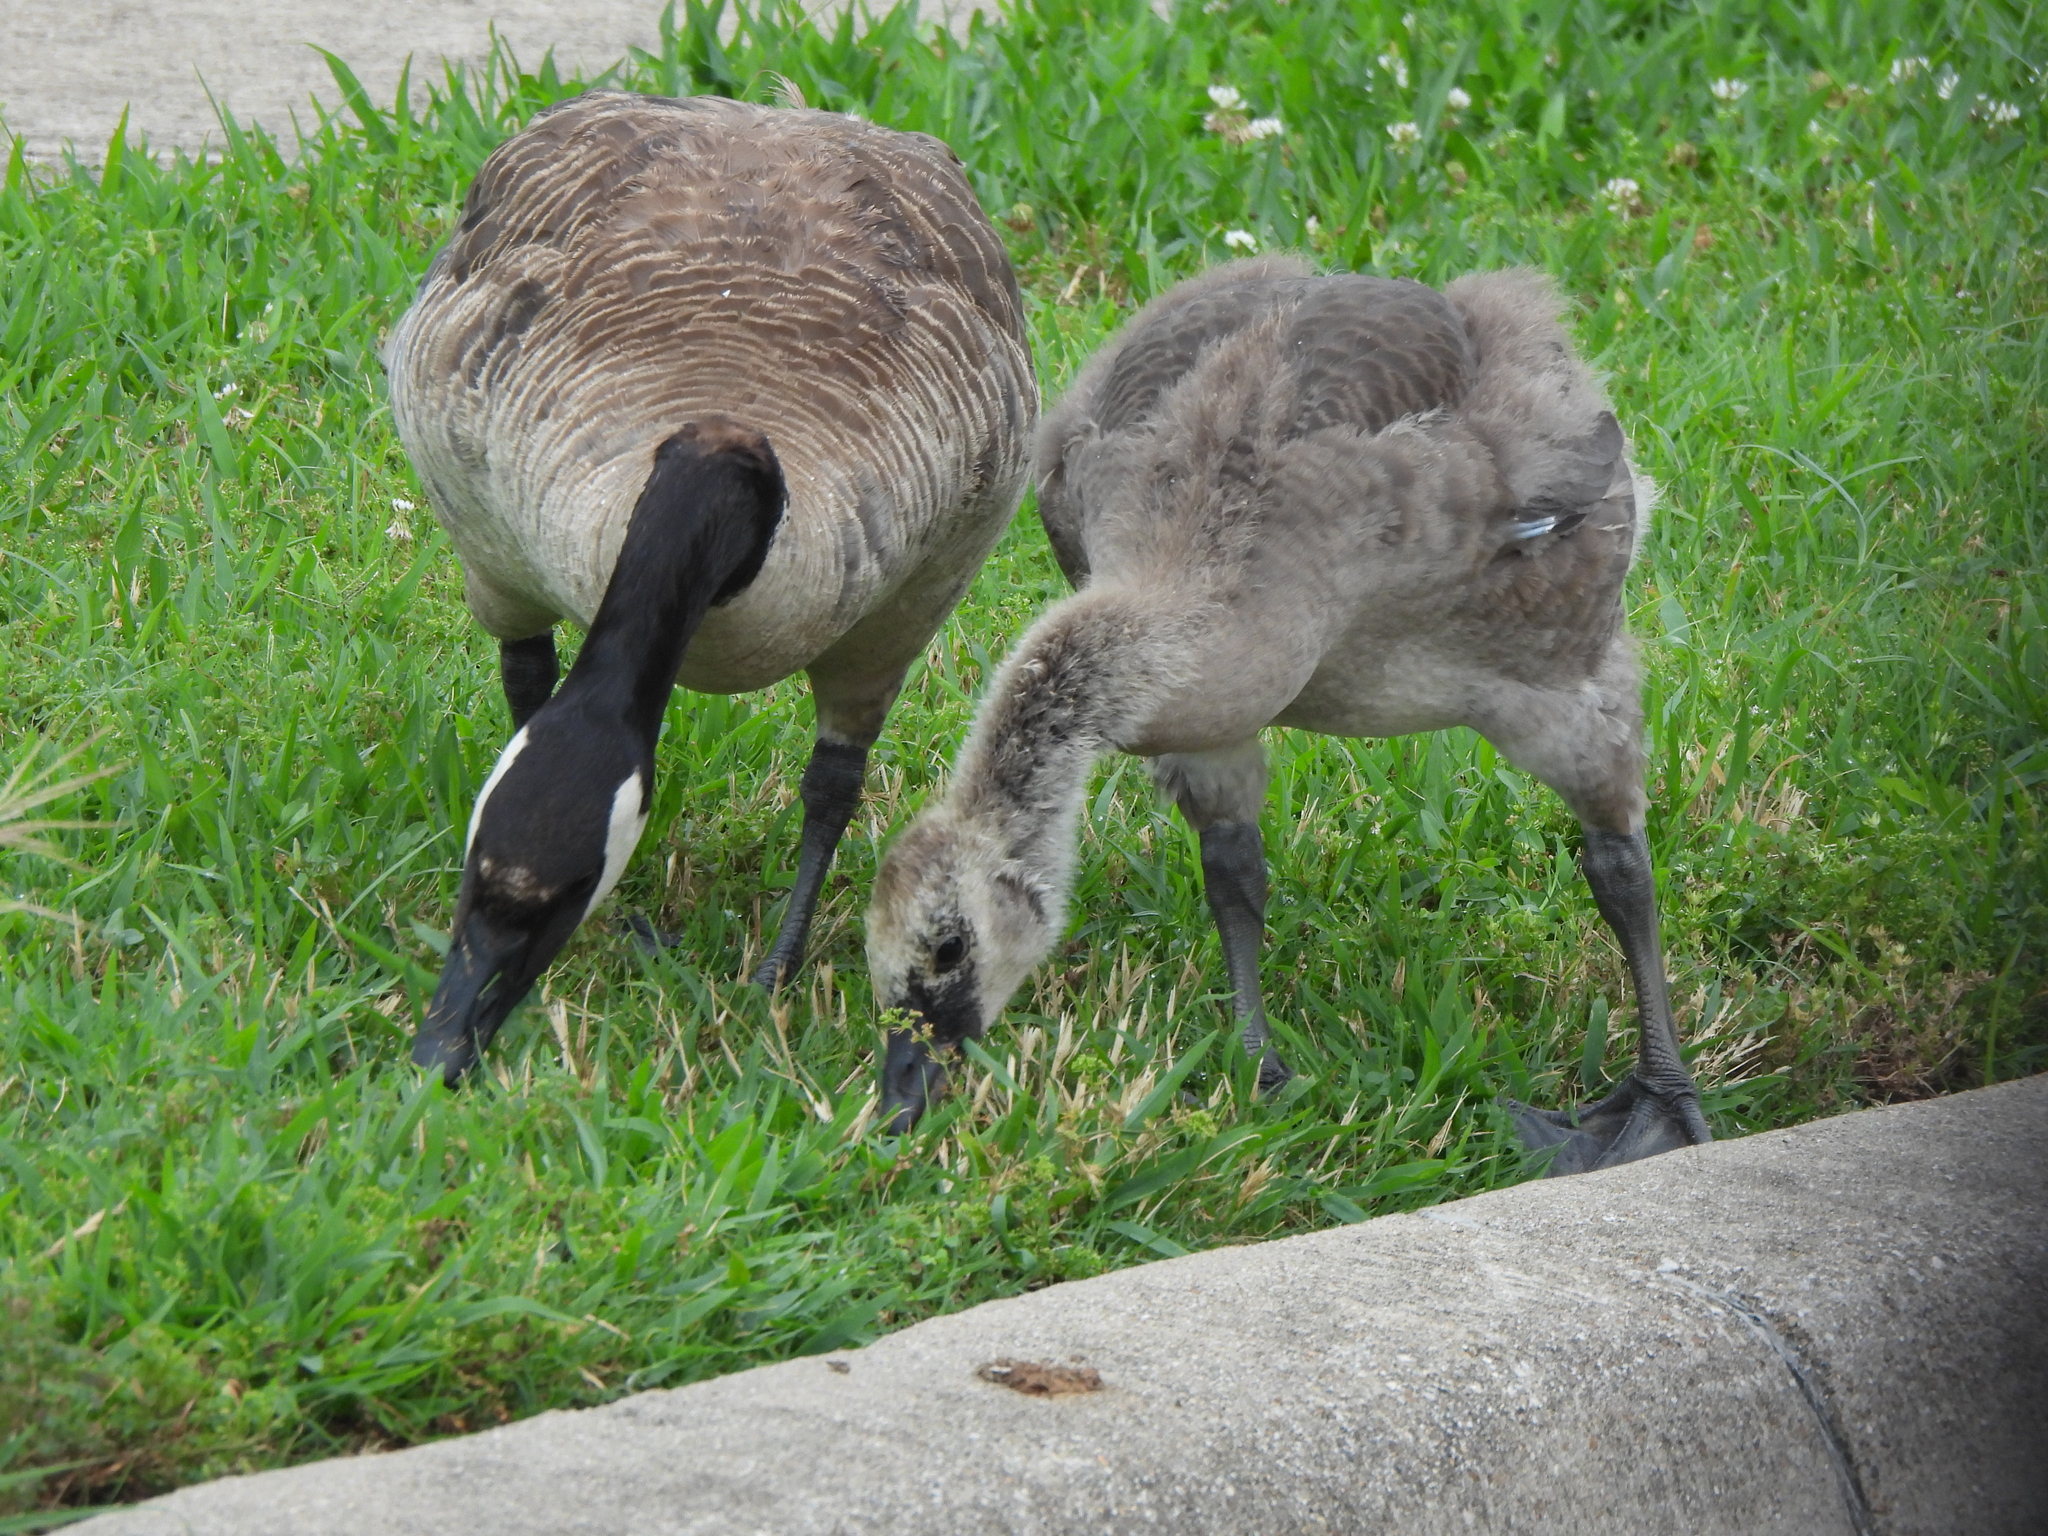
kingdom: Animalia
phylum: Chordata
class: Aves
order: Anseriformes
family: Anatidae
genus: Branta
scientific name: Branta canadensis
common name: Canada goose
